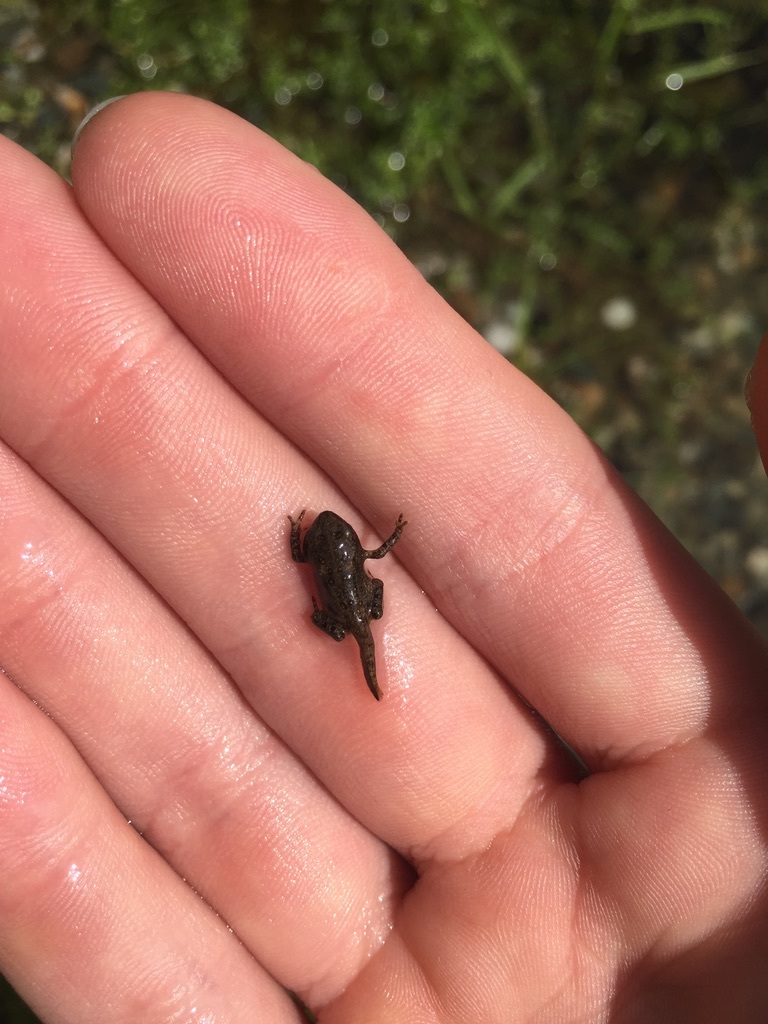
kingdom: Animalia
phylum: Chordata
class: Amphibia
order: Anura
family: Bufonidae
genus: Anaxyrus
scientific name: Anaxyrus americanus
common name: American toad
